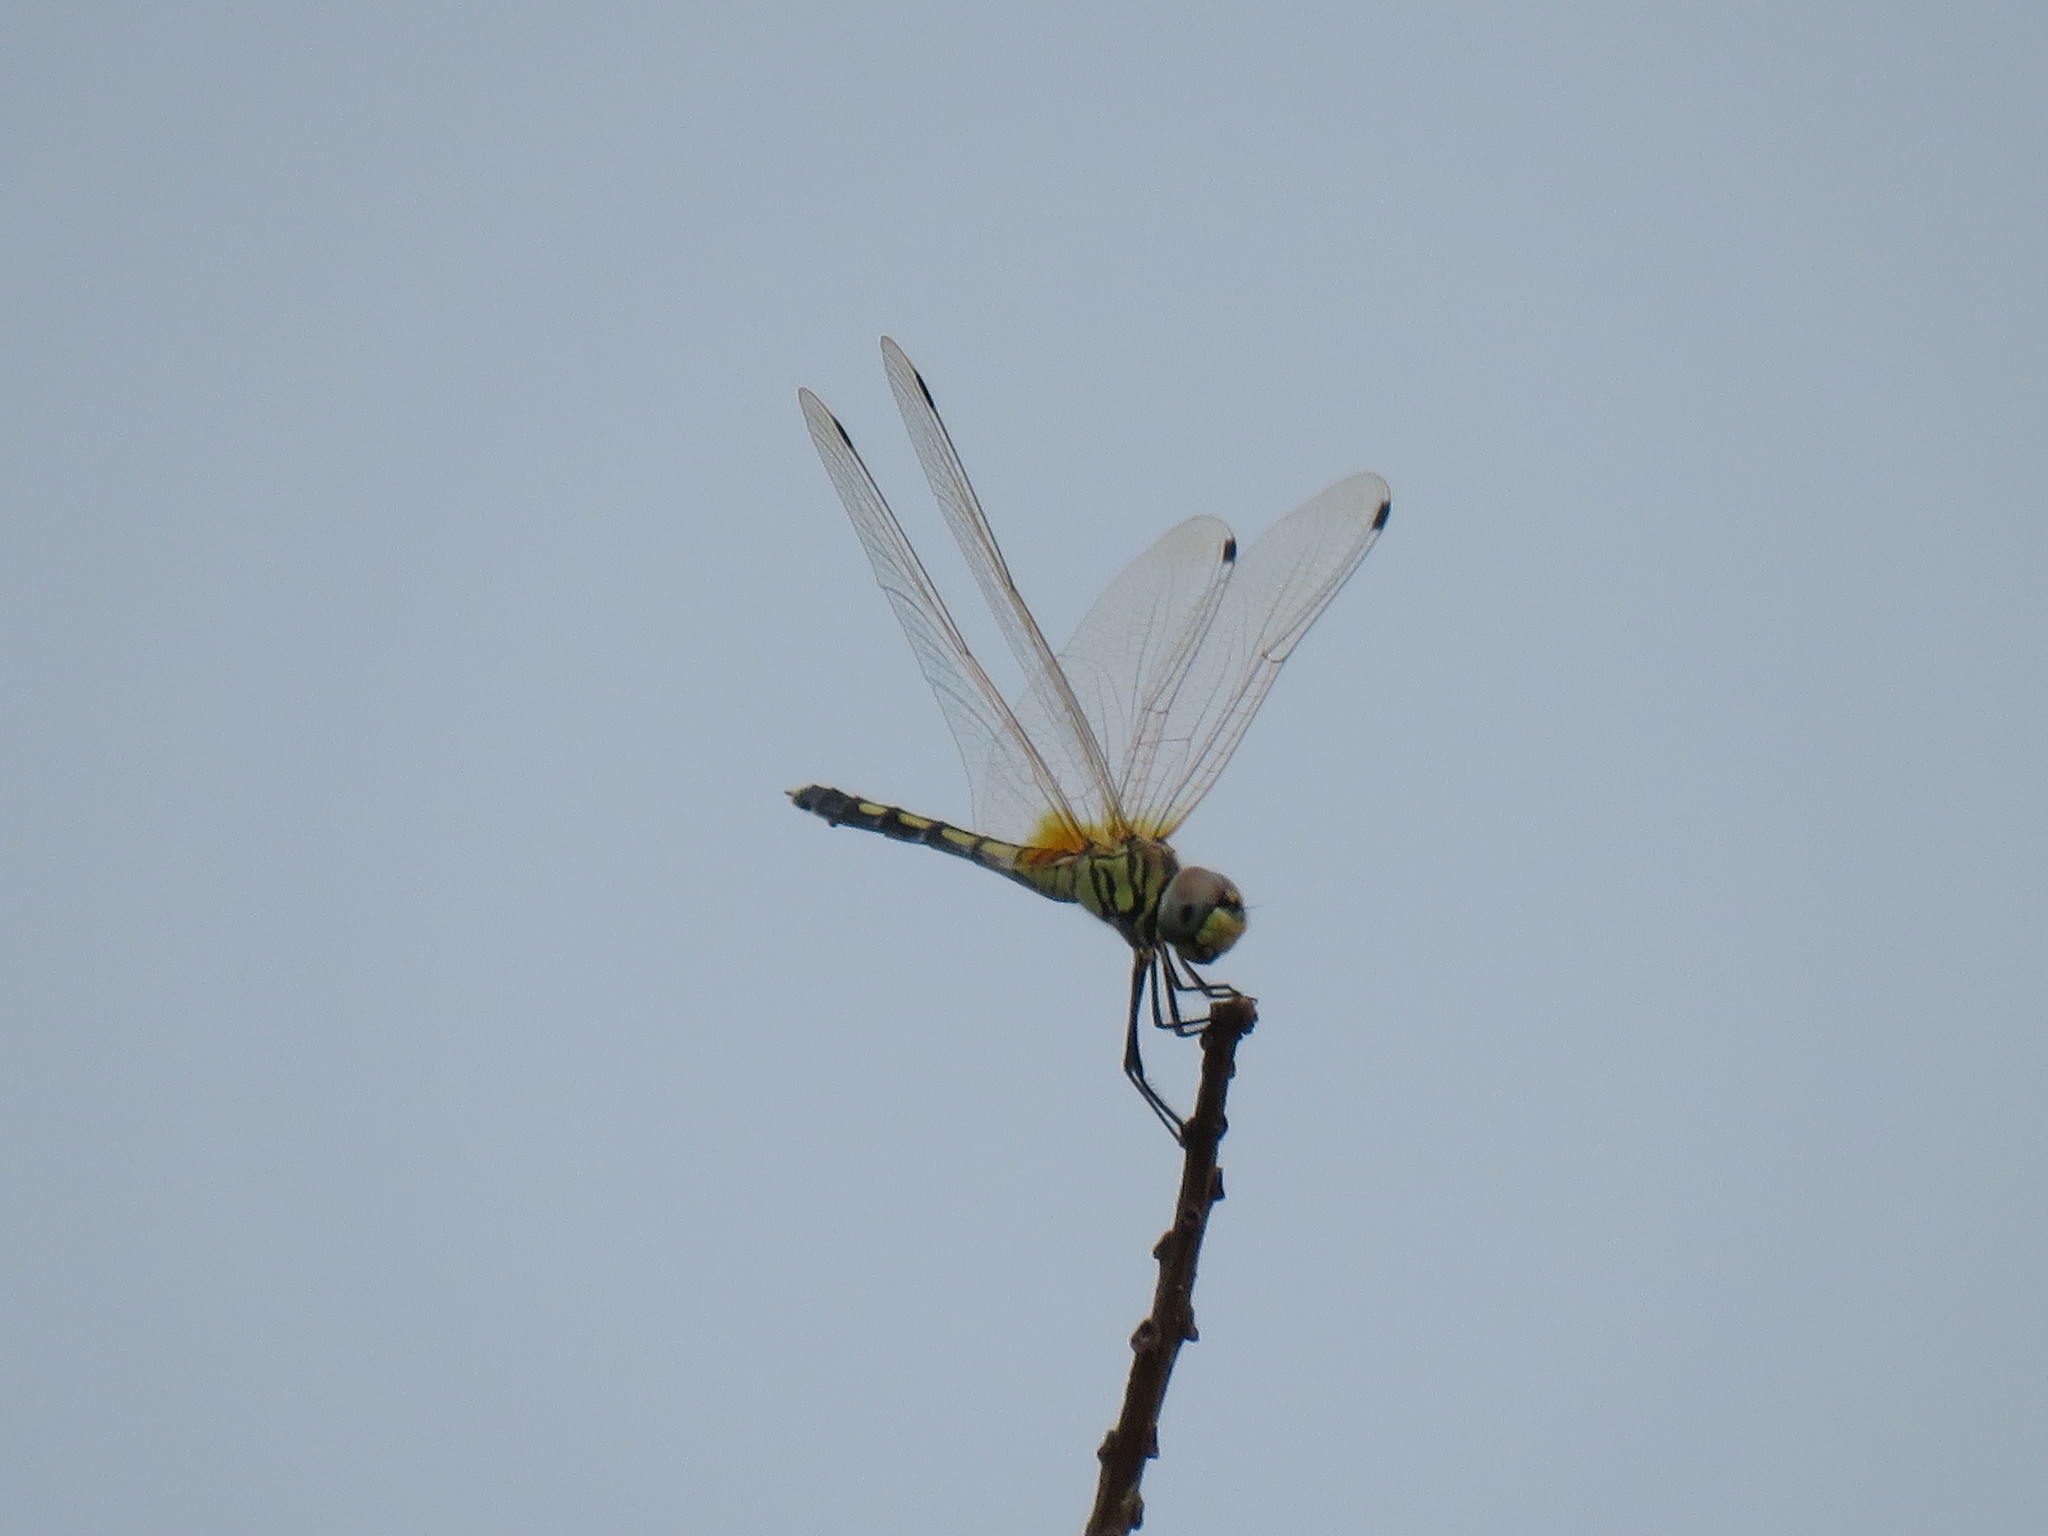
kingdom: Animalia
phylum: Arthropoda
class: Insecta
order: Odonata
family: Libellulidae
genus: Trithemis
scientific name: Trithemis pallidinervis
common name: Dancing dropwing
